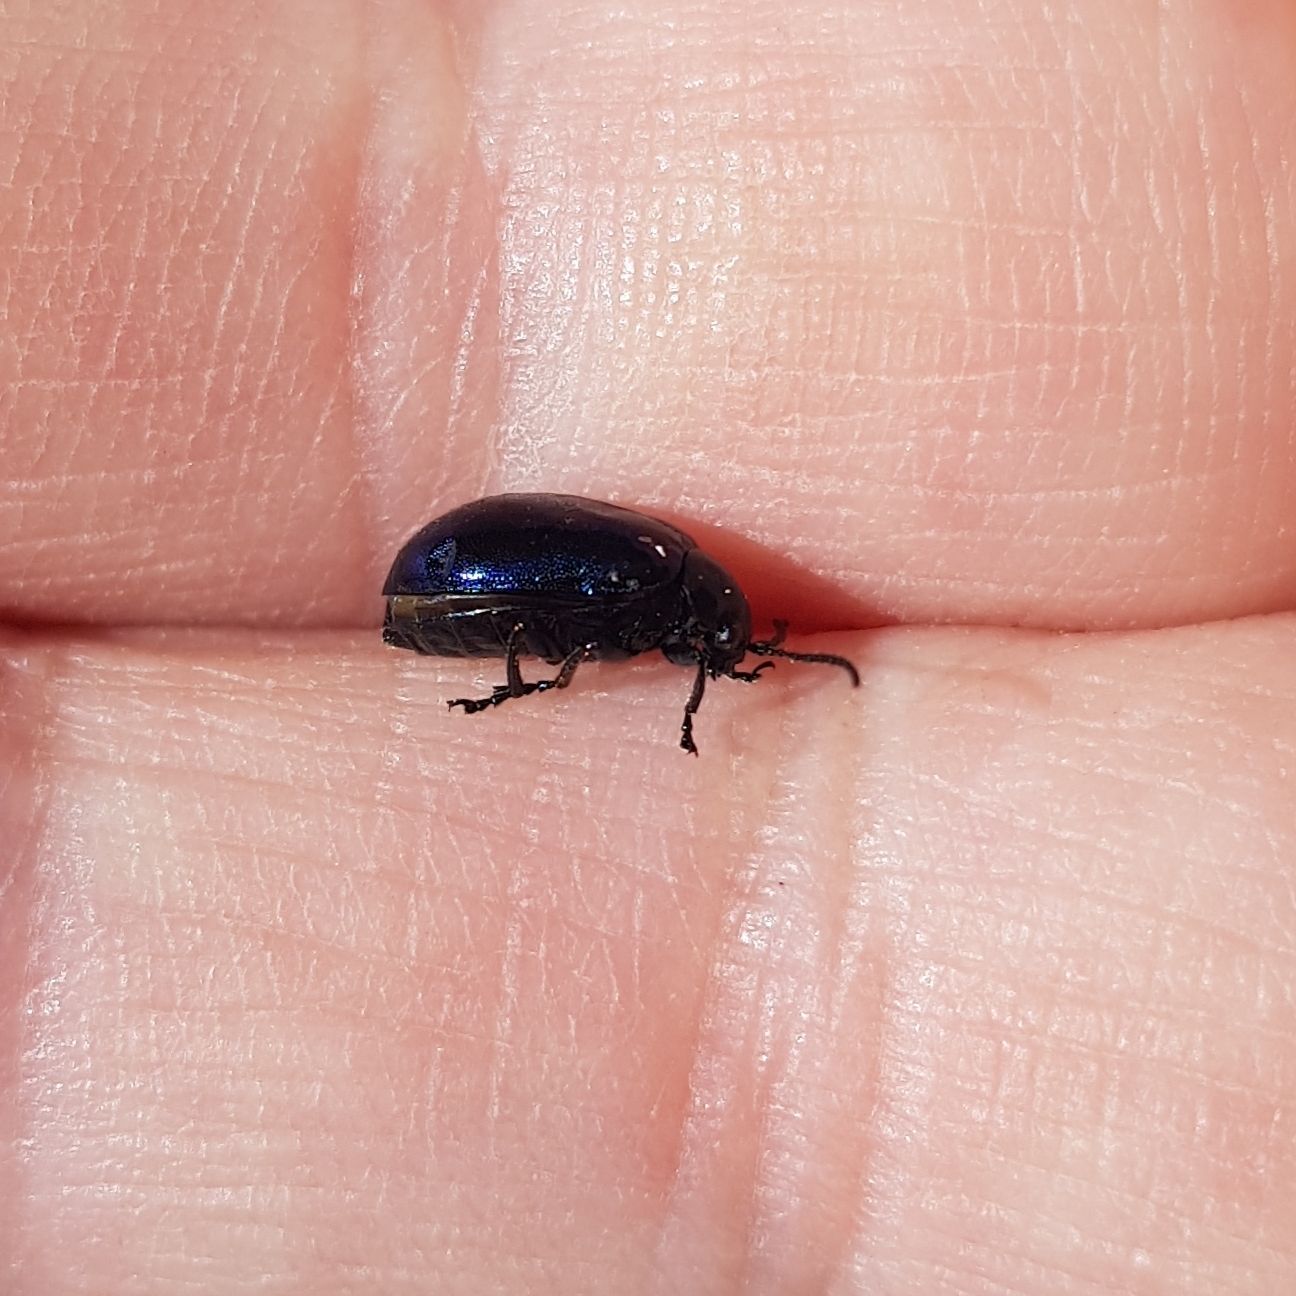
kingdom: Animalia
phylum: Arthropoda
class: Insecta
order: Coleoptera
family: Chrysomelidae
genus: Agelastica
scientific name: Agelastica alni
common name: Alder leaf beetle
